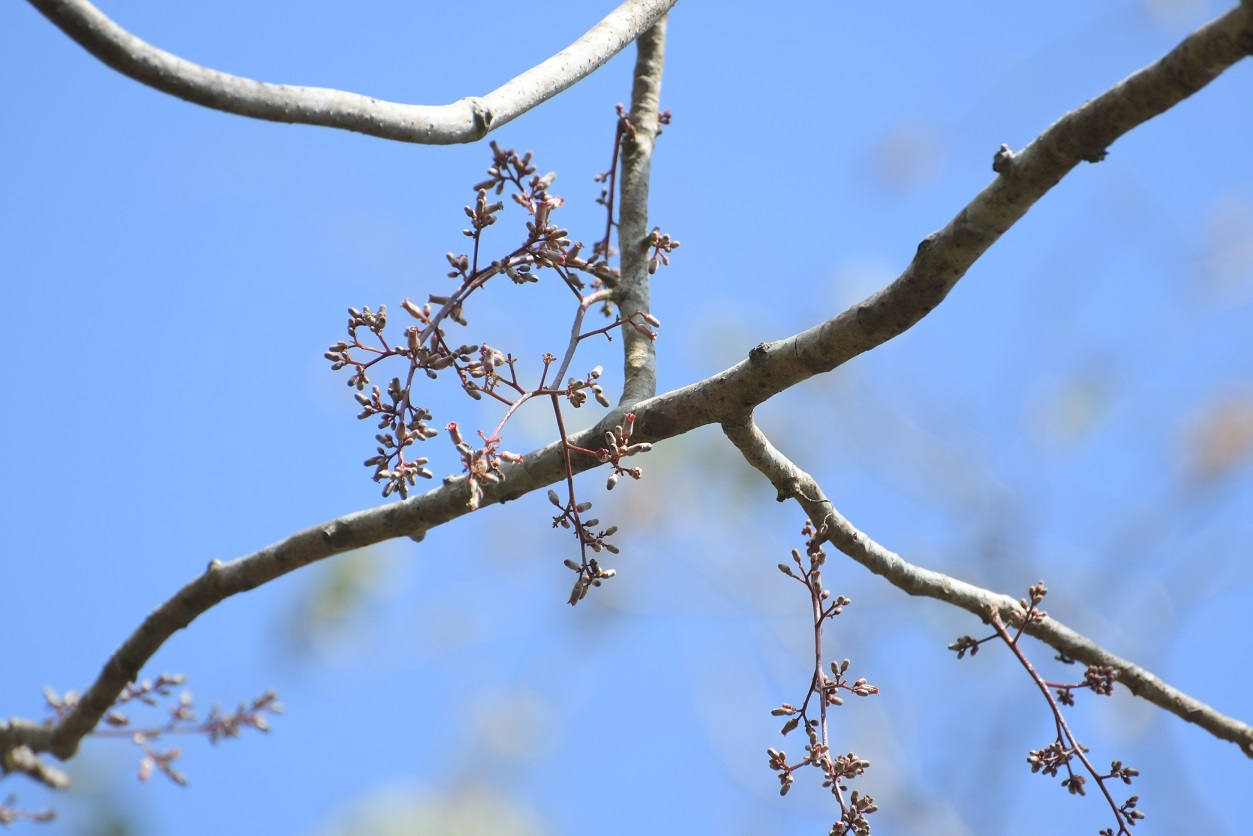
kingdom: Plantae
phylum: Tracheophyta
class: Magnoliopsida
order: Sapindales
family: Meliaceae
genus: Cedrela
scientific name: Cedrela salvadorensis
